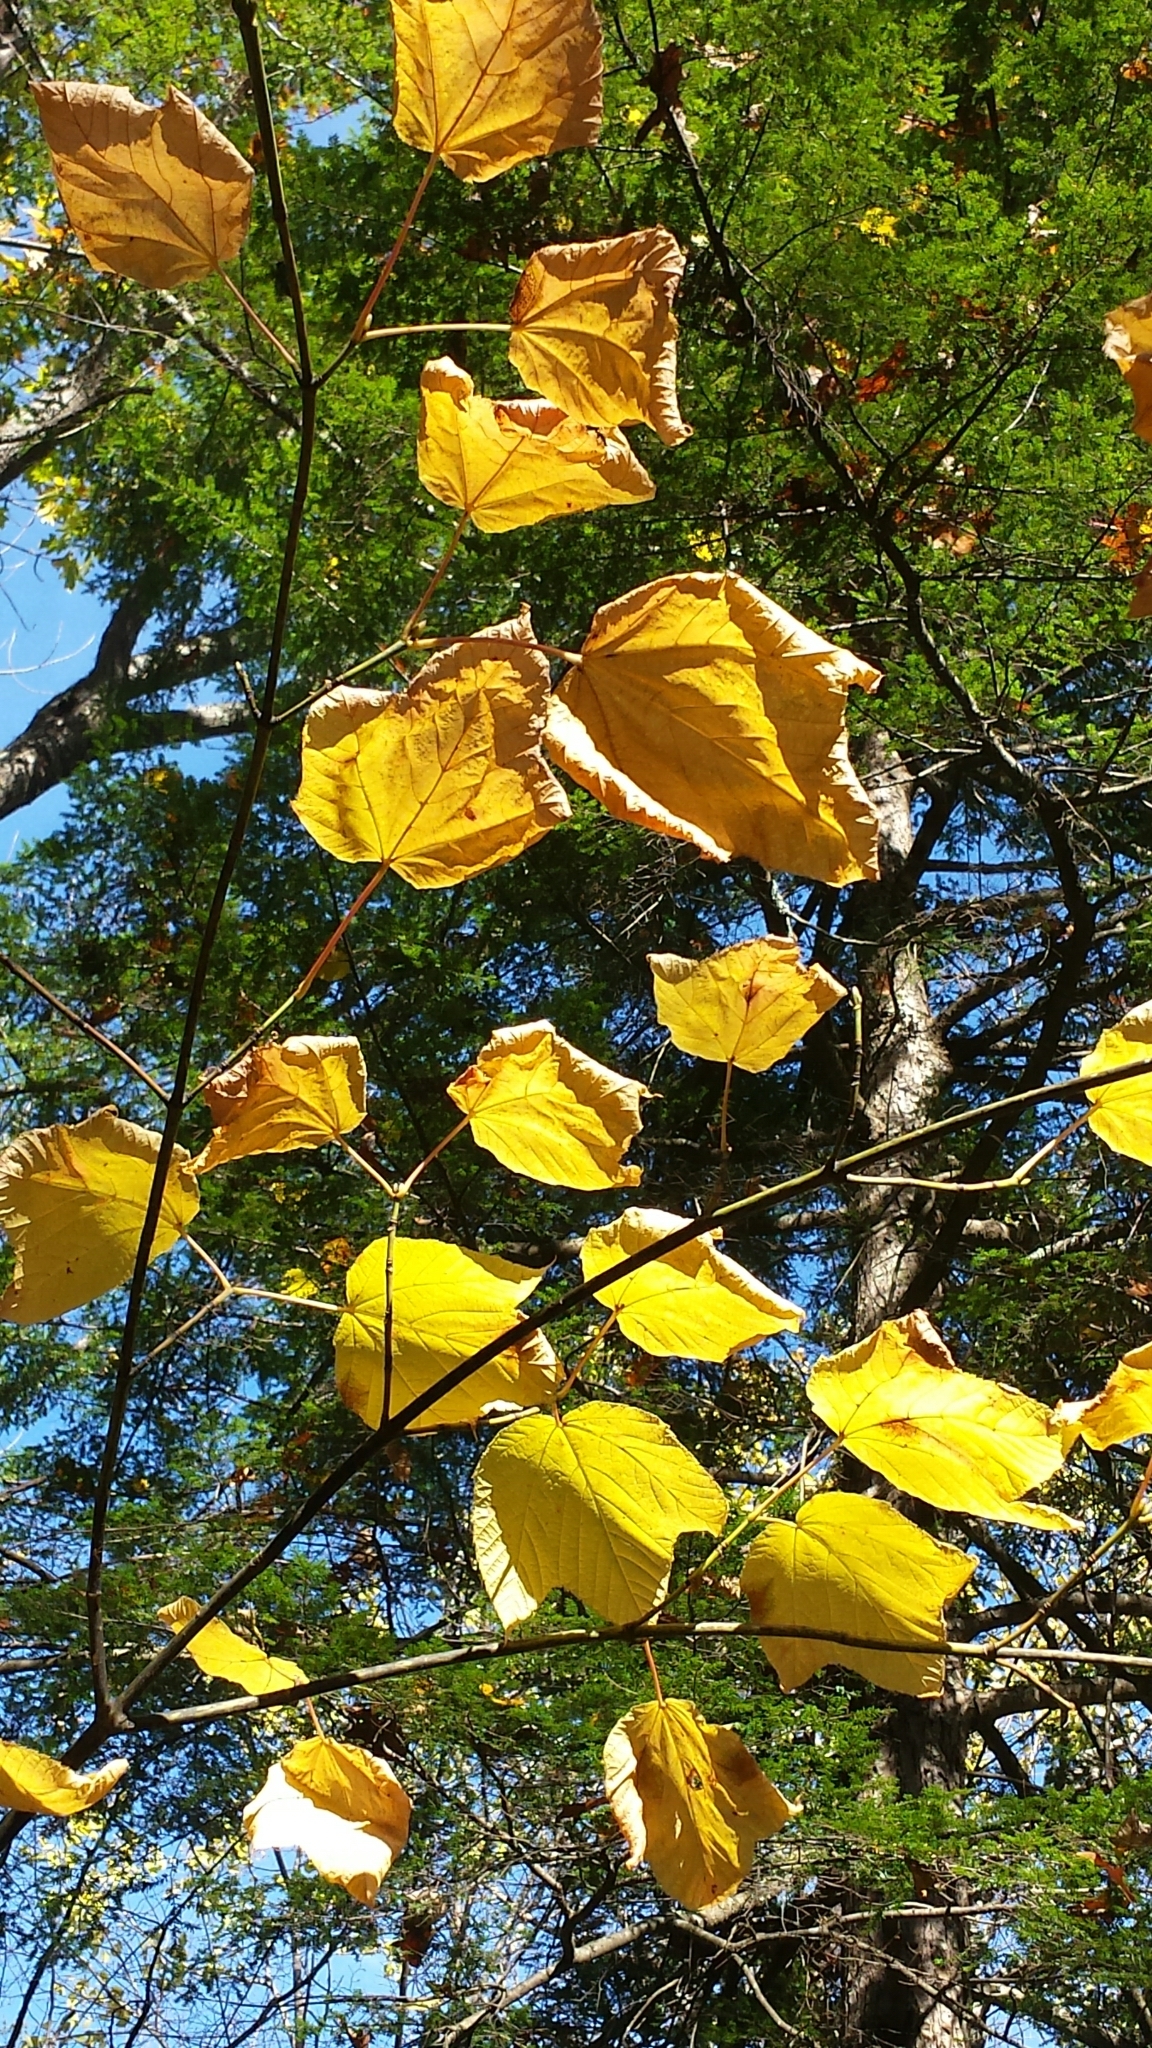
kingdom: Plantae
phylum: Tracheophyta
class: Magnoliopsida
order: Sapindales
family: Sapindaceae
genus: Acer
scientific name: Acer pensylvanicum
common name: Moosewood
